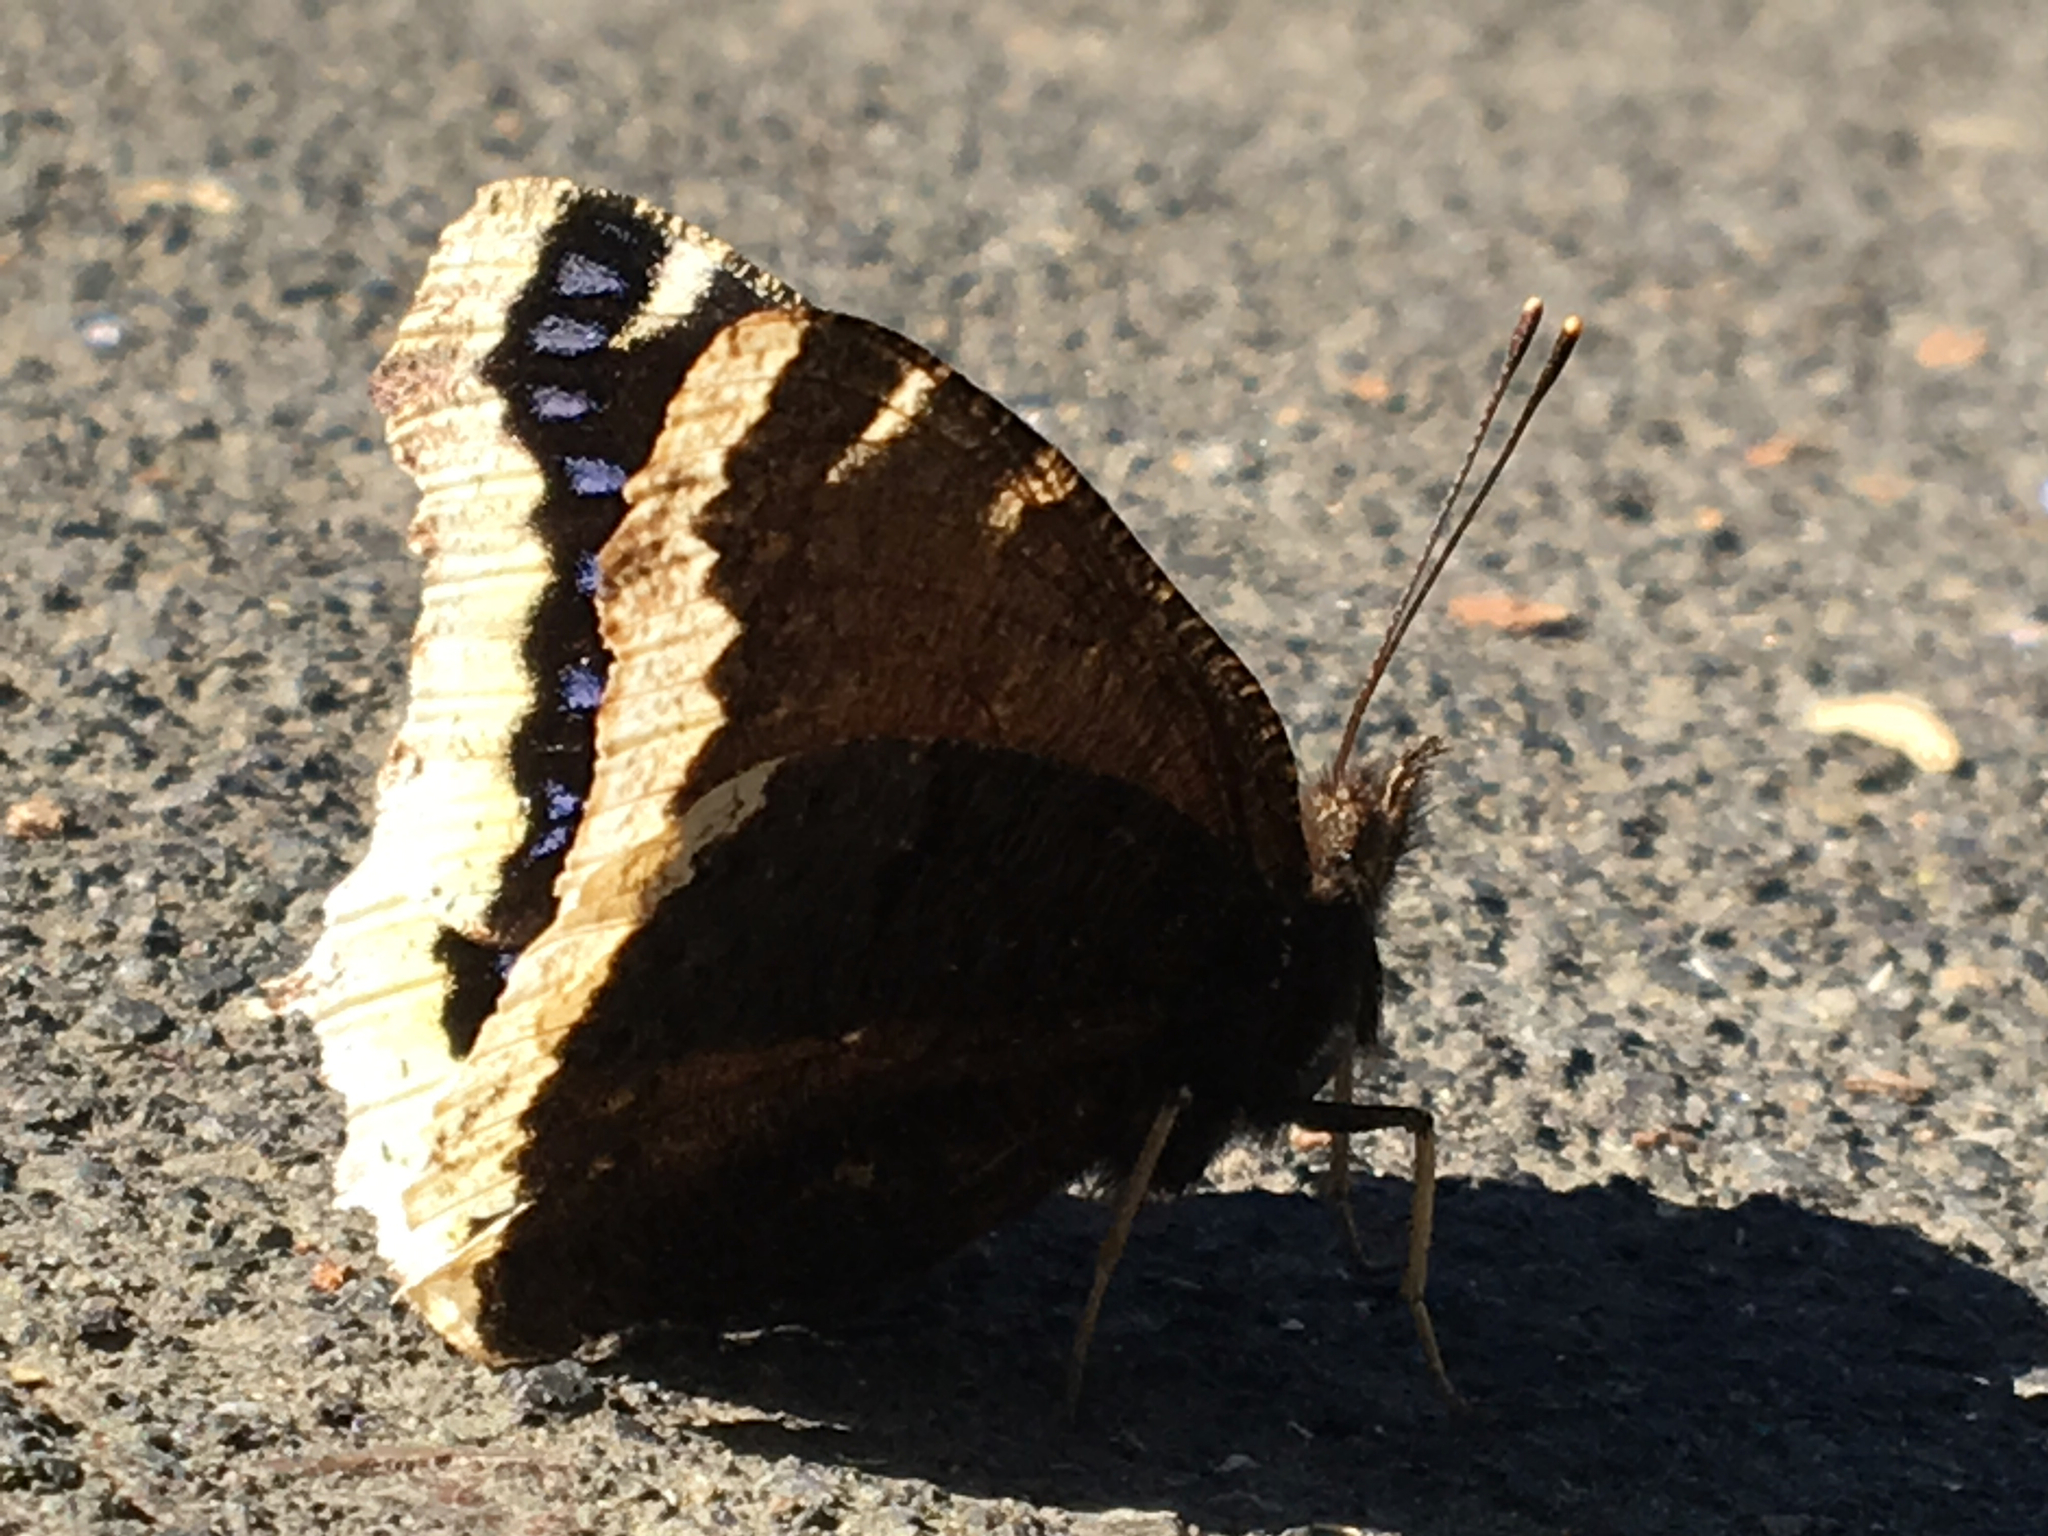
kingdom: Animalia
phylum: Arthropoda
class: Insecta
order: Lepidoptera
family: Nymphalidae
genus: Nymphalis
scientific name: Nymphalis antiopa
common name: Camberwell beauty
